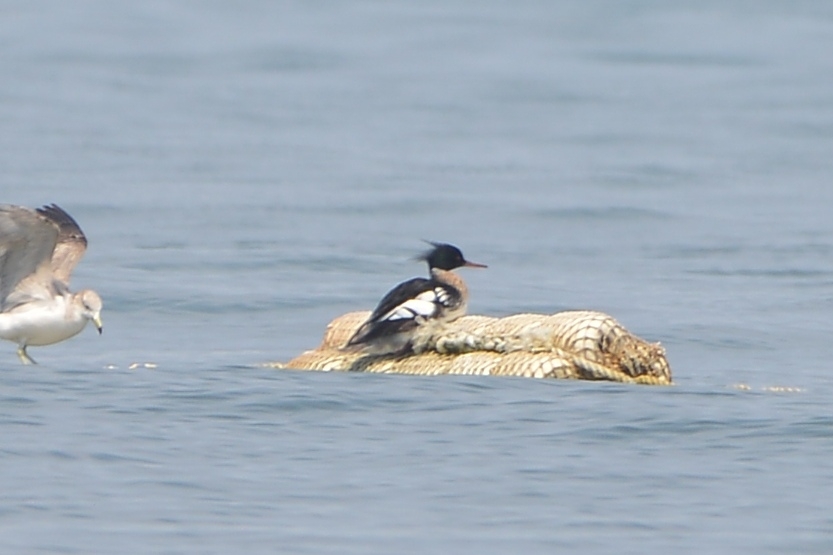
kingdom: Animalia
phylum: Chordata
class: Aves
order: Anseriformes
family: Anatidae
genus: Mergus
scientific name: Mergus serrator
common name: Red-breasted merganser
